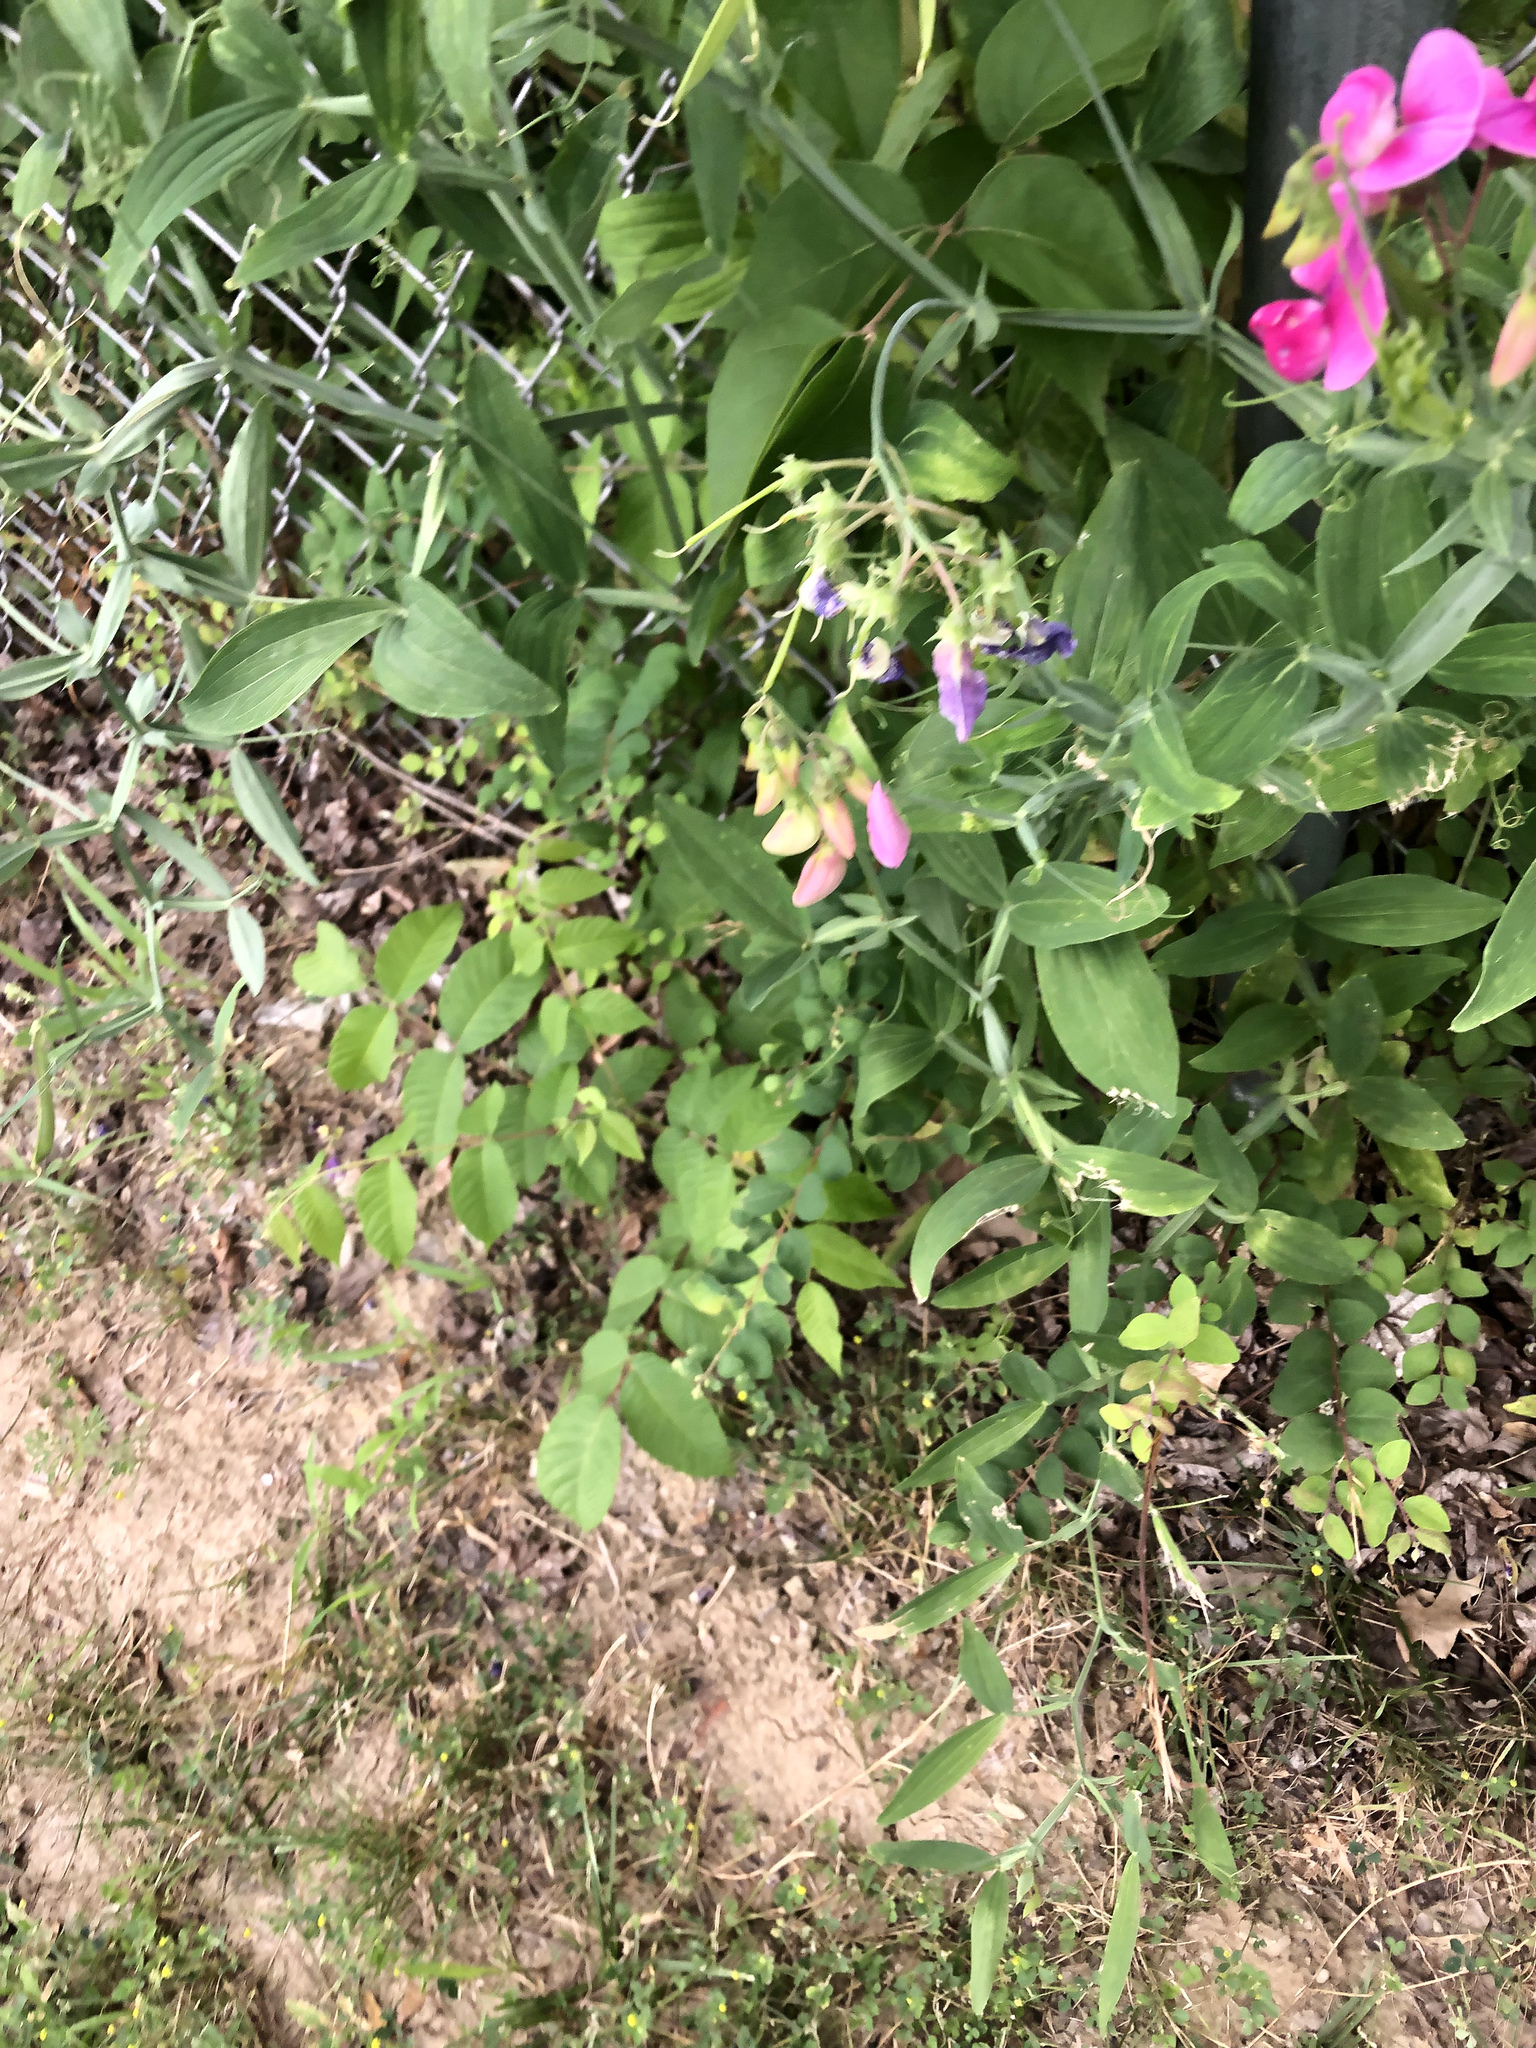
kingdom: Plantae
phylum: Tracheophyta
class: Magnoliopsida
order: Fabales
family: Fabaceae
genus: Lathyrus
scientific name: Lathyrus latifolius
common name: Perennial pea
